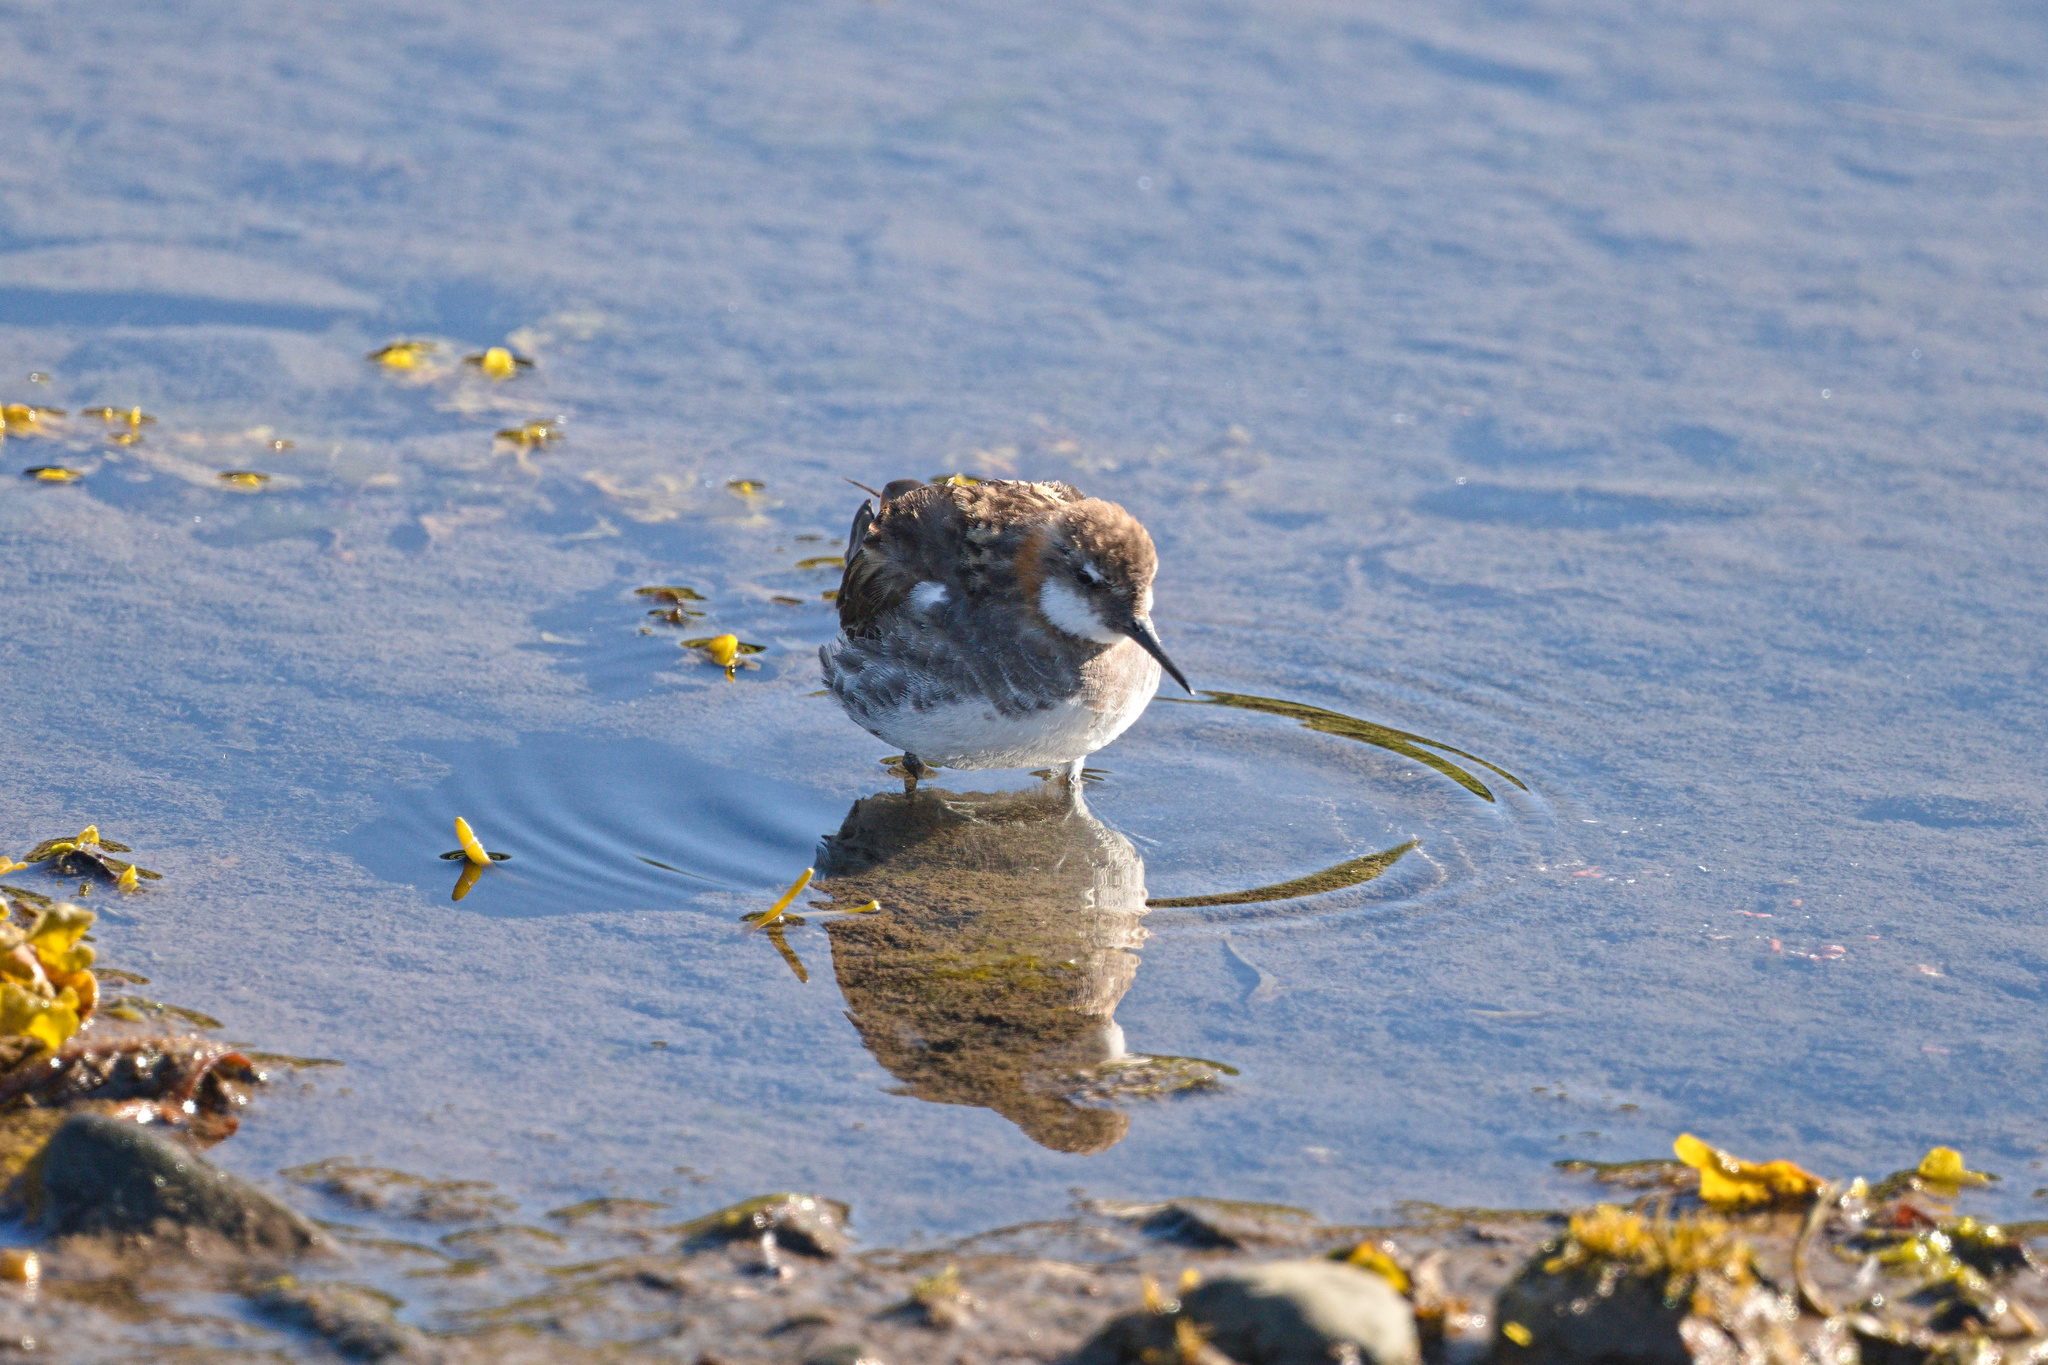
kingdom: Animalia
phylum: Chordata
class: Aves
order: Charadriiformes
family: Scolopacidae
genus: Phalaropus
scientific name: Phalaropus lobatus
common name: Red-necked phalarope
